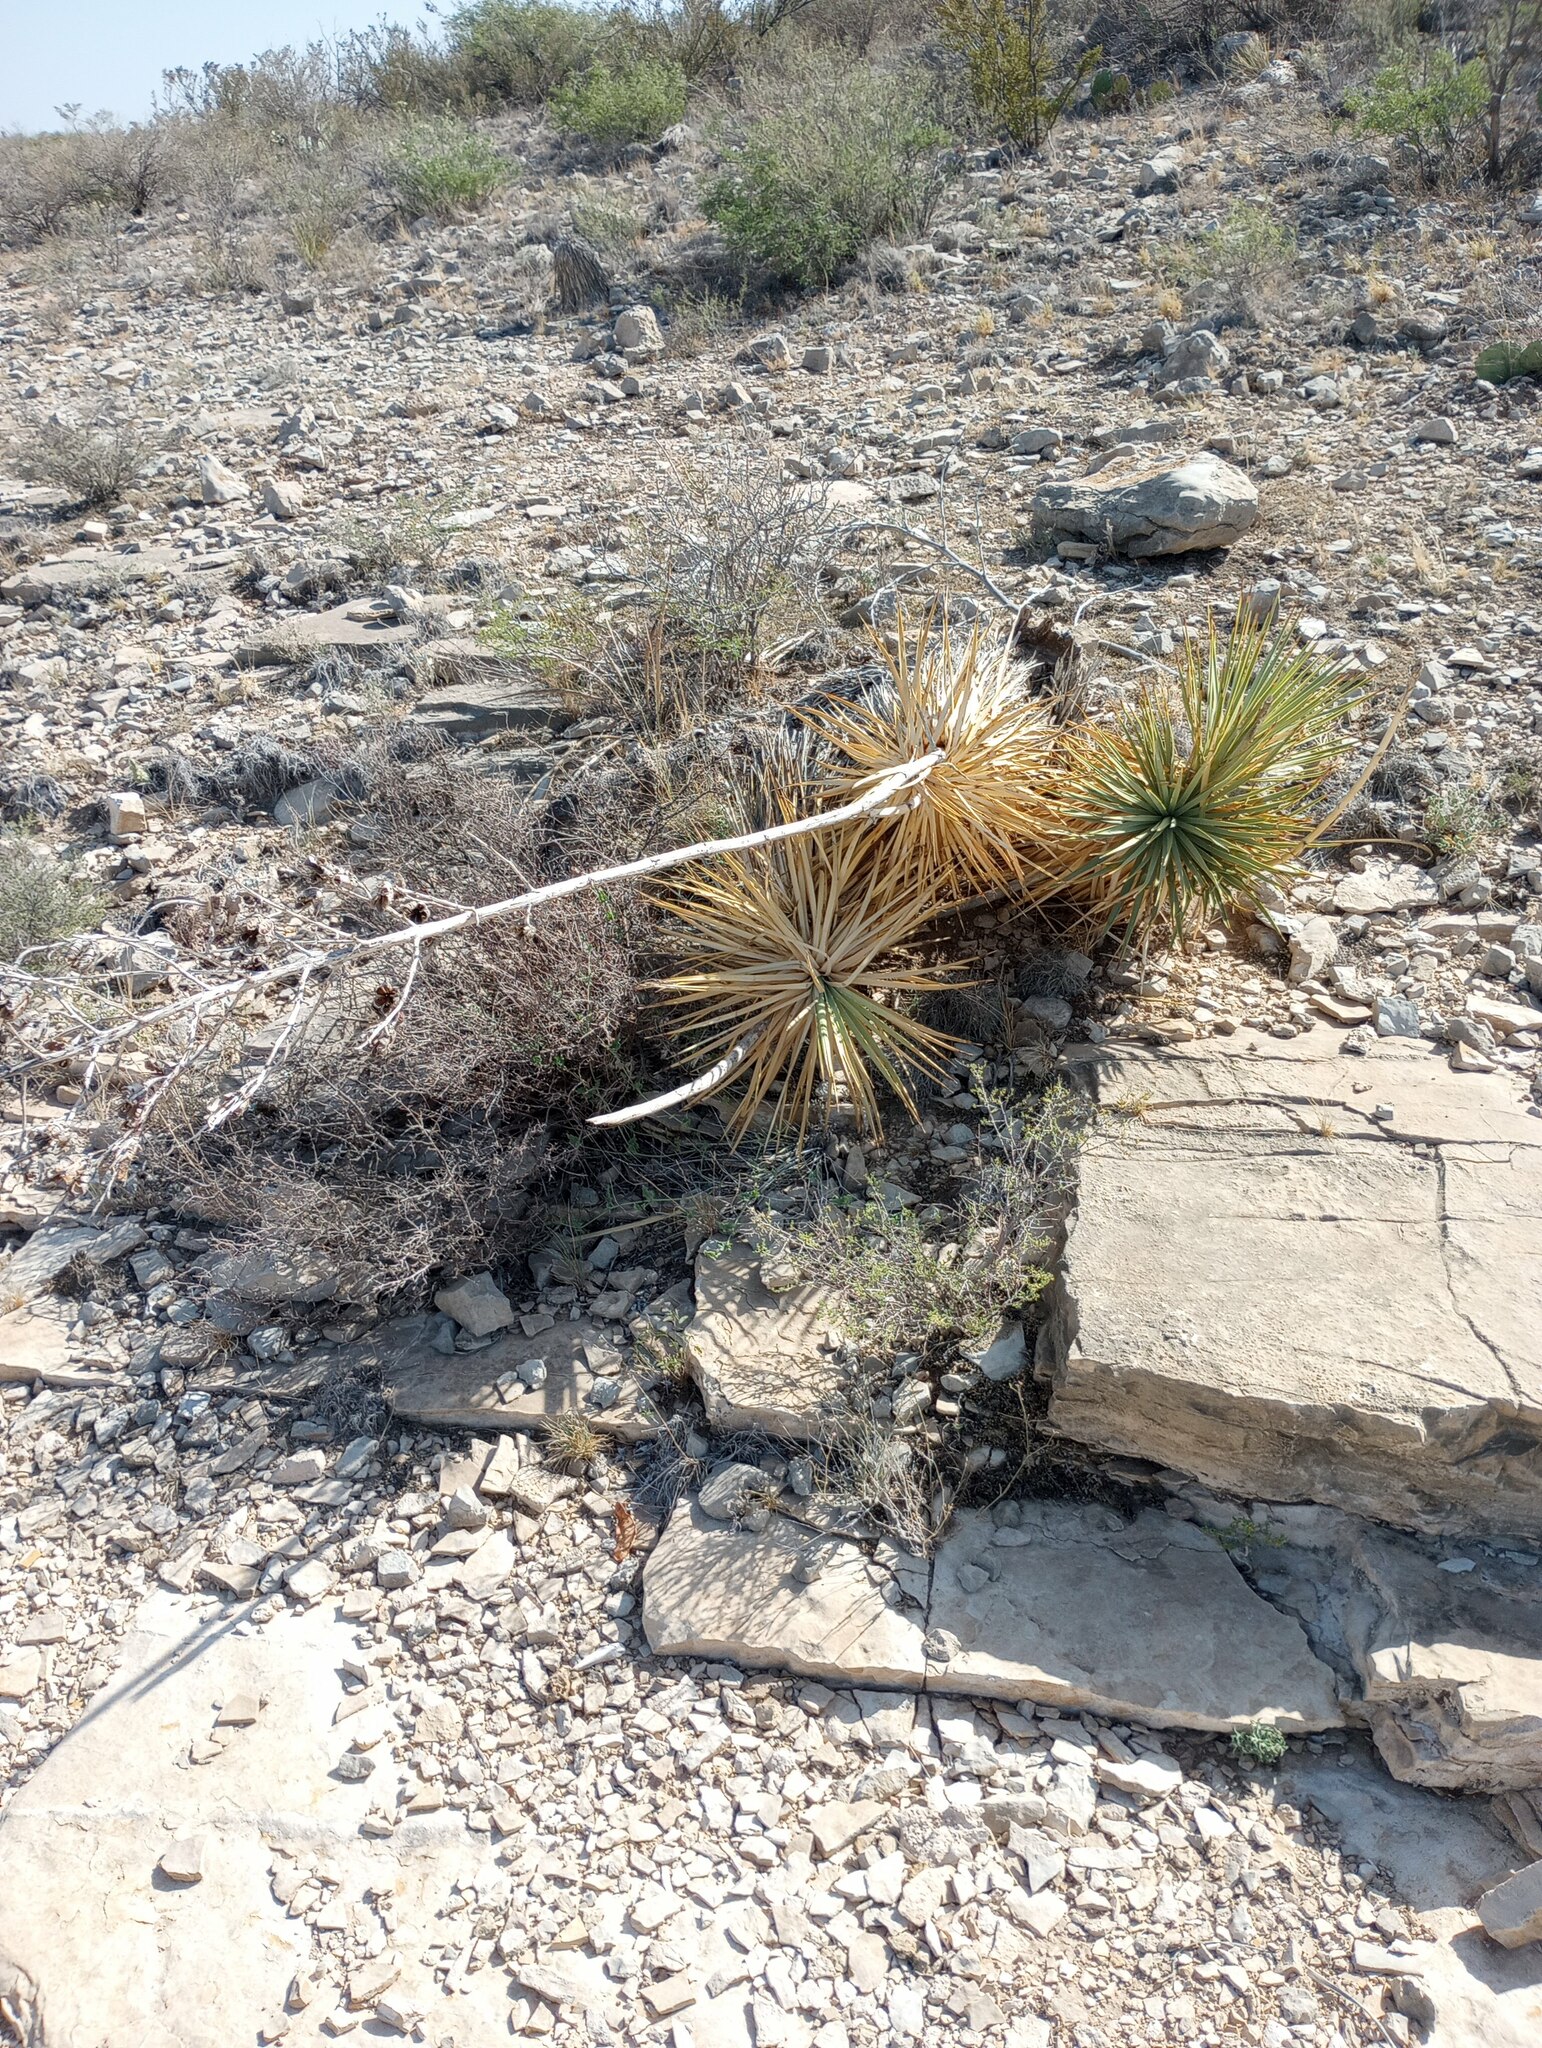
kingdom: Plantae
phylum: Tracheophyta
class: Liliopsida
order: Asparagales
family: Asparagaceae
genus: Yucca
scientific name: Yucca thompsoniana
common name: Trans-pecos yucca
